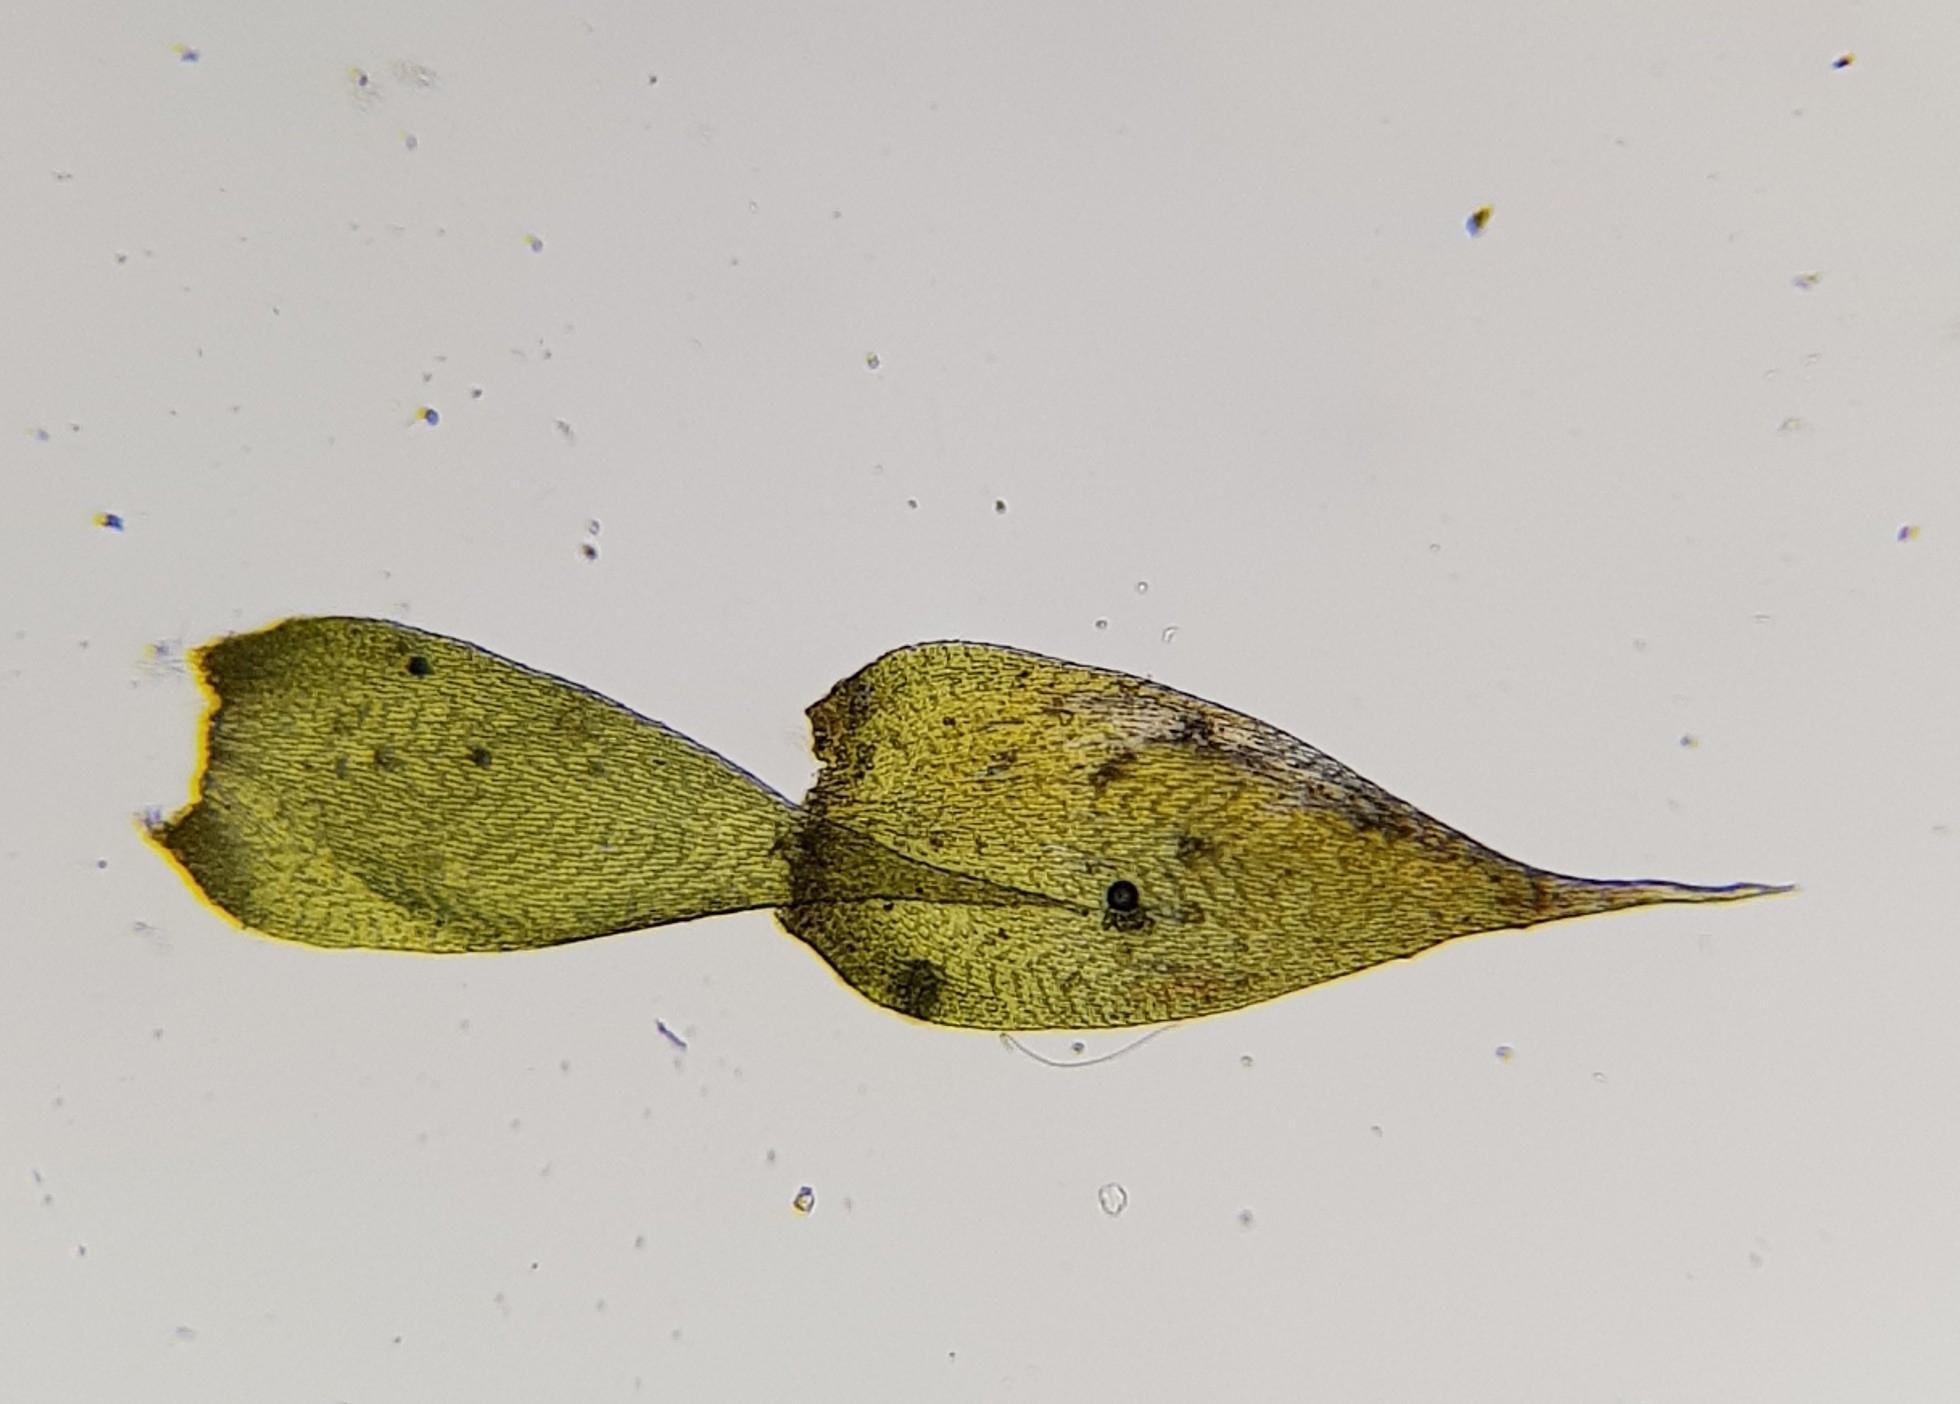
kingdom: Plantae
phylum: Bryophyta
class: Bryopsida
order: Hypnales
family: Hypnaceae
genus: Hypnum
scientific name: Hypnum resupinatum
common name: Supine plait-moss
